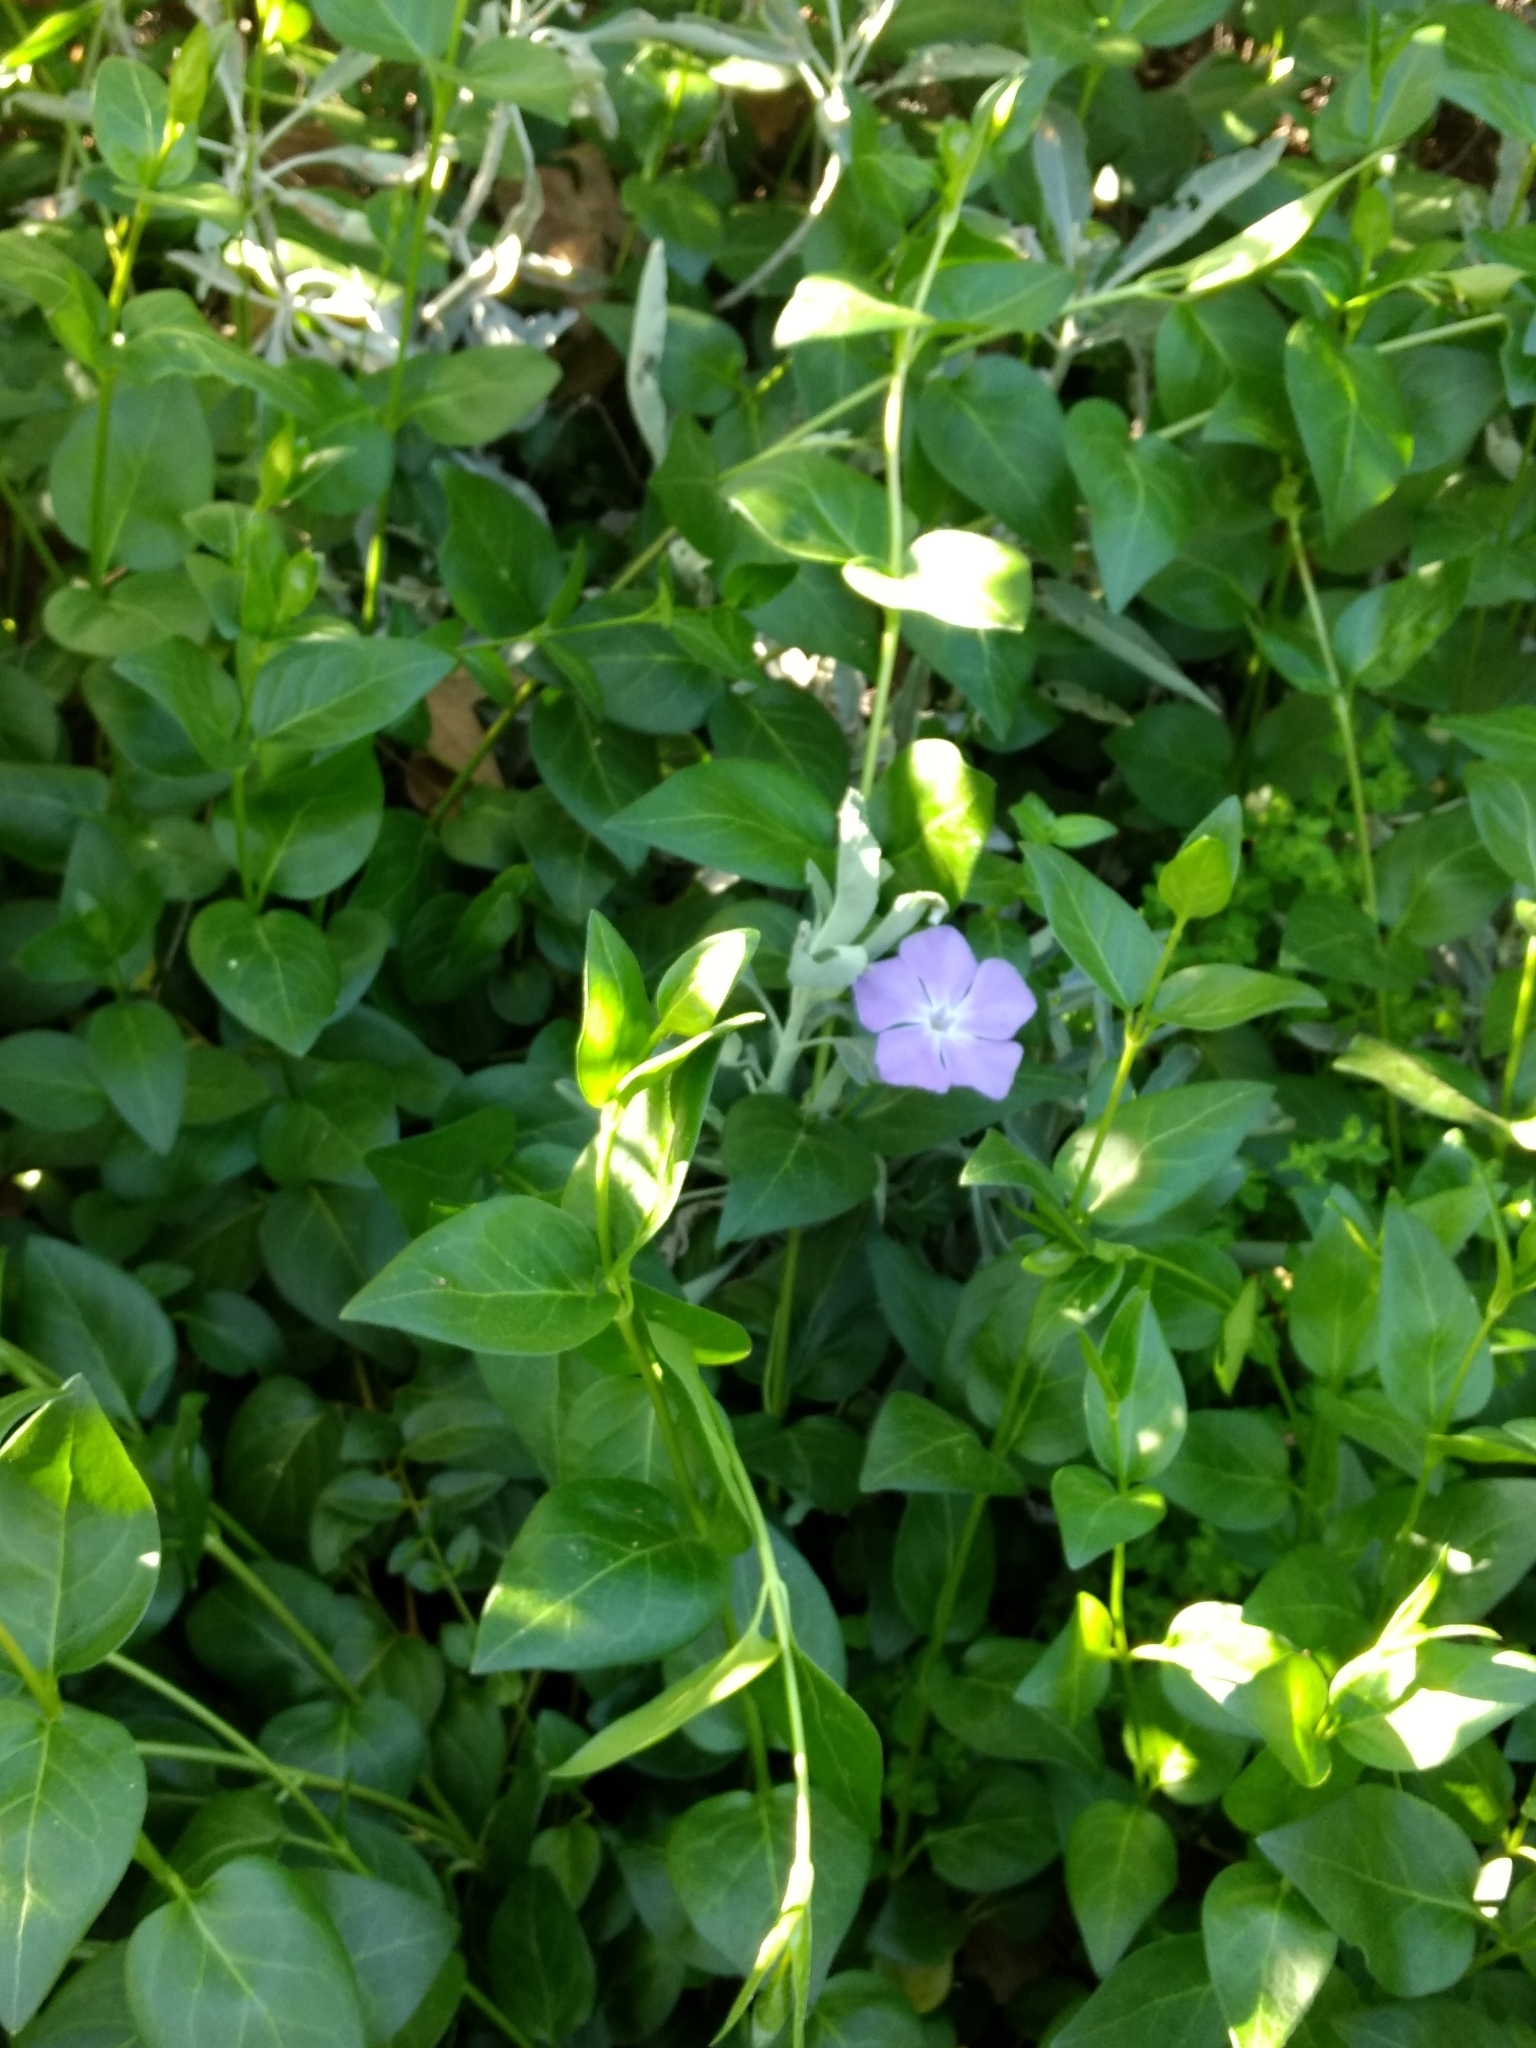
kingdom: Plantae
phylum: Tracheophyta
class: Magnoliopsida
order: Gentianales
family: Apocynaceae
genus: Vinca
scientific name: Vinca major
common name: Greater periwinkle
